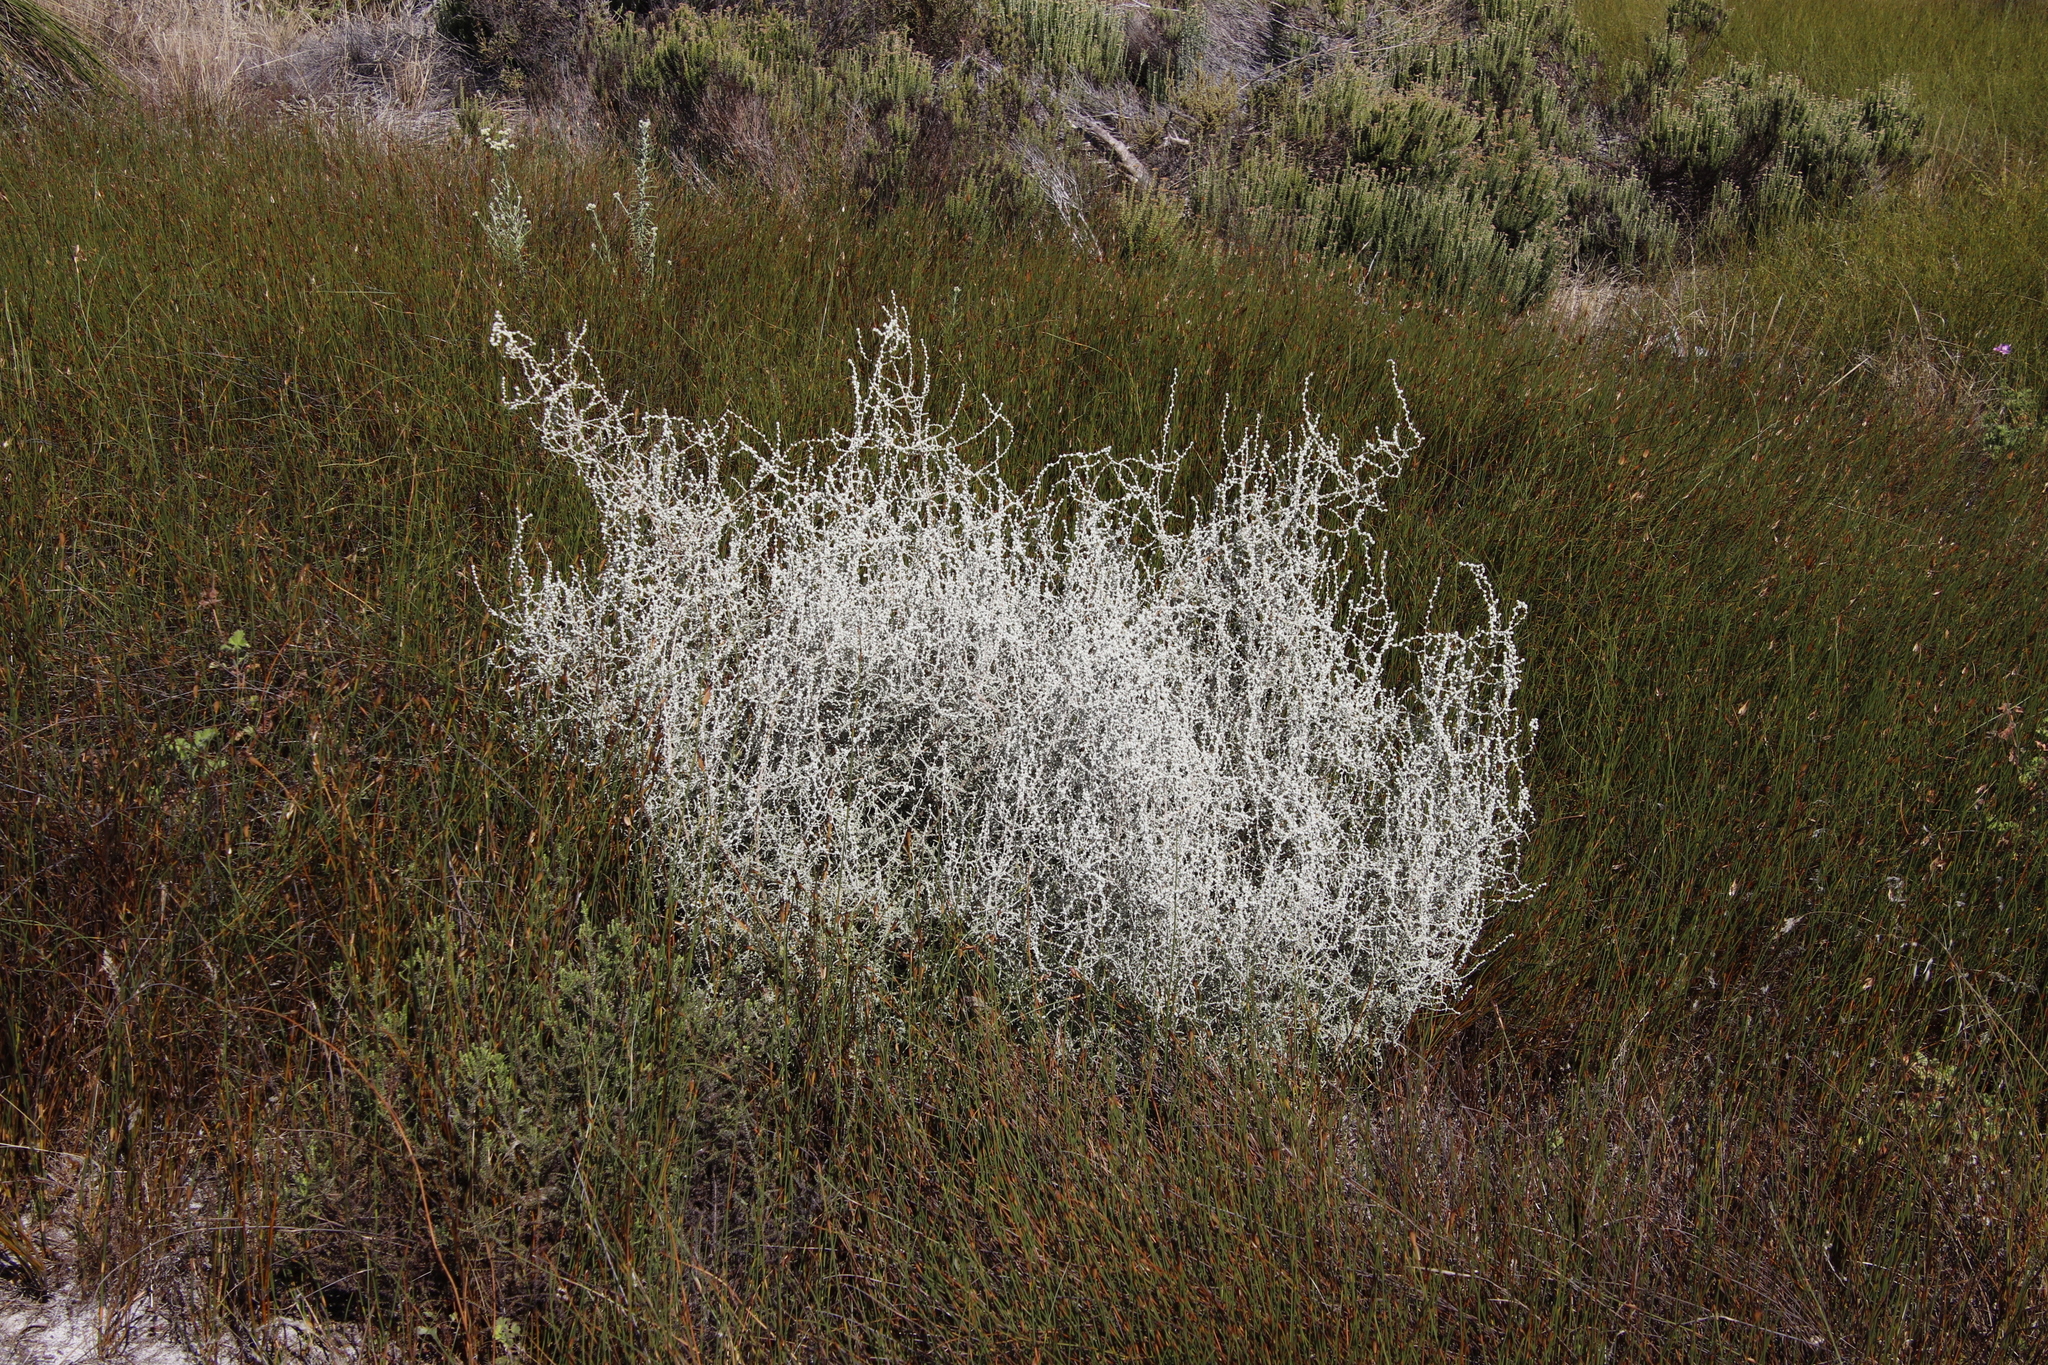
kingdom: Plantae
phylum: Tracheophyta
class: Magnoliopsida
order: Asterales
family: Asteraceae
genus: Seriphium
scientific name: Seriphium plumosum
